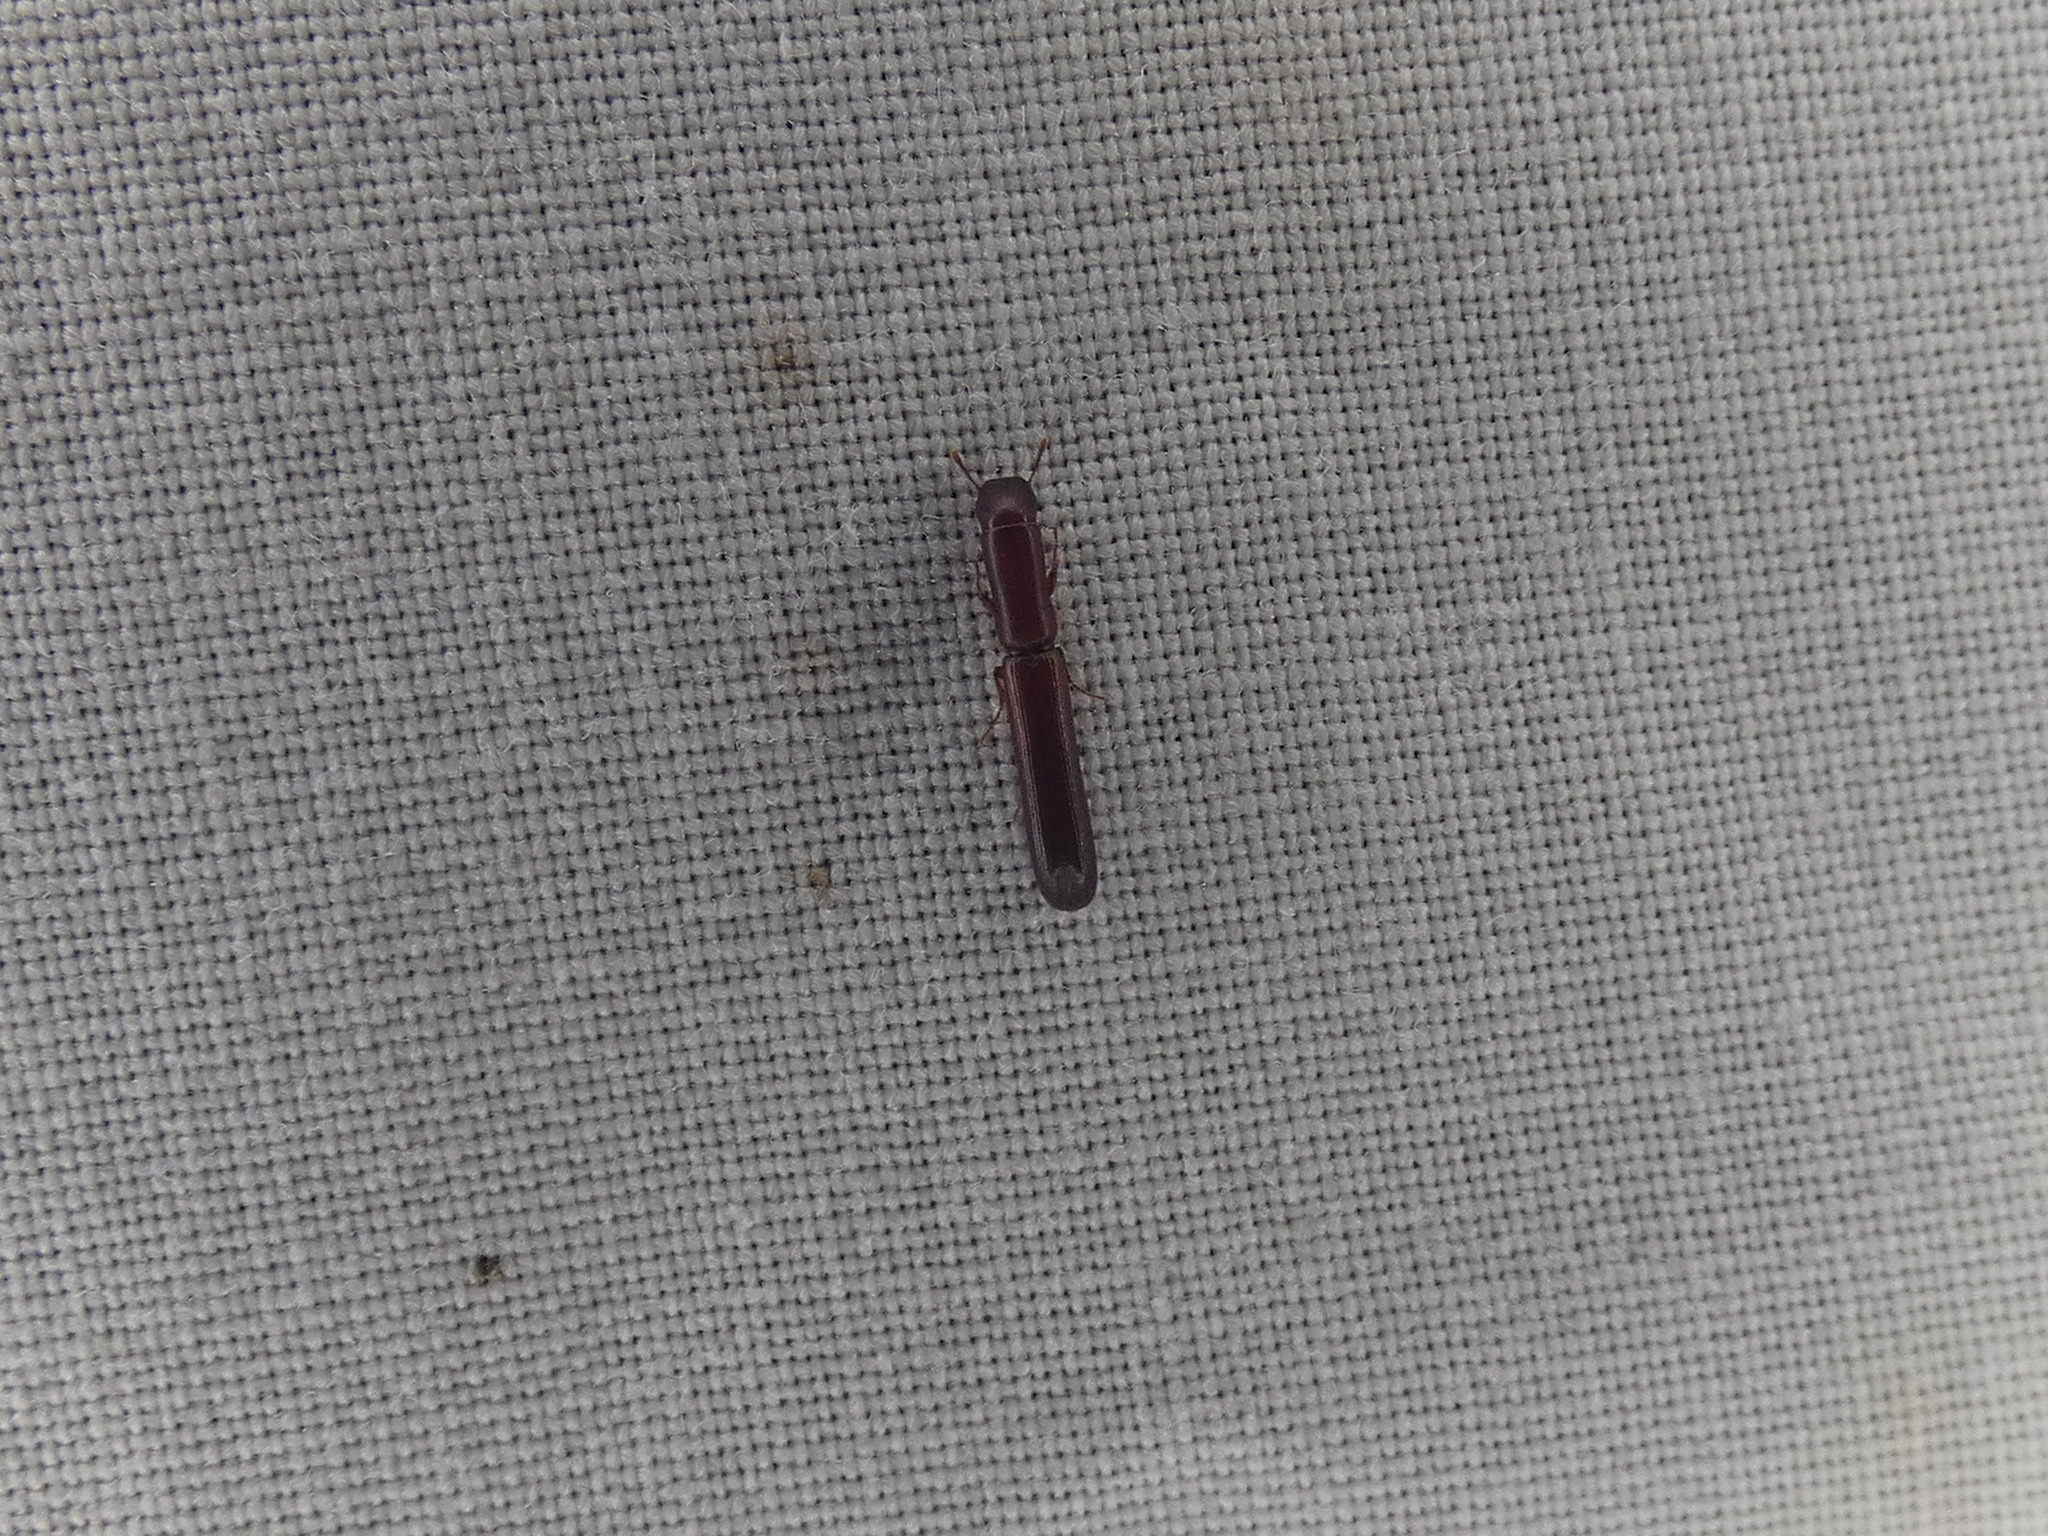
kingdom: Animalia
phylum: Arthropoda
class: Insecta
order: Coleoptera
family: Zopheridae
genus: Nematidium
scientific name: Nematidium filiforme
